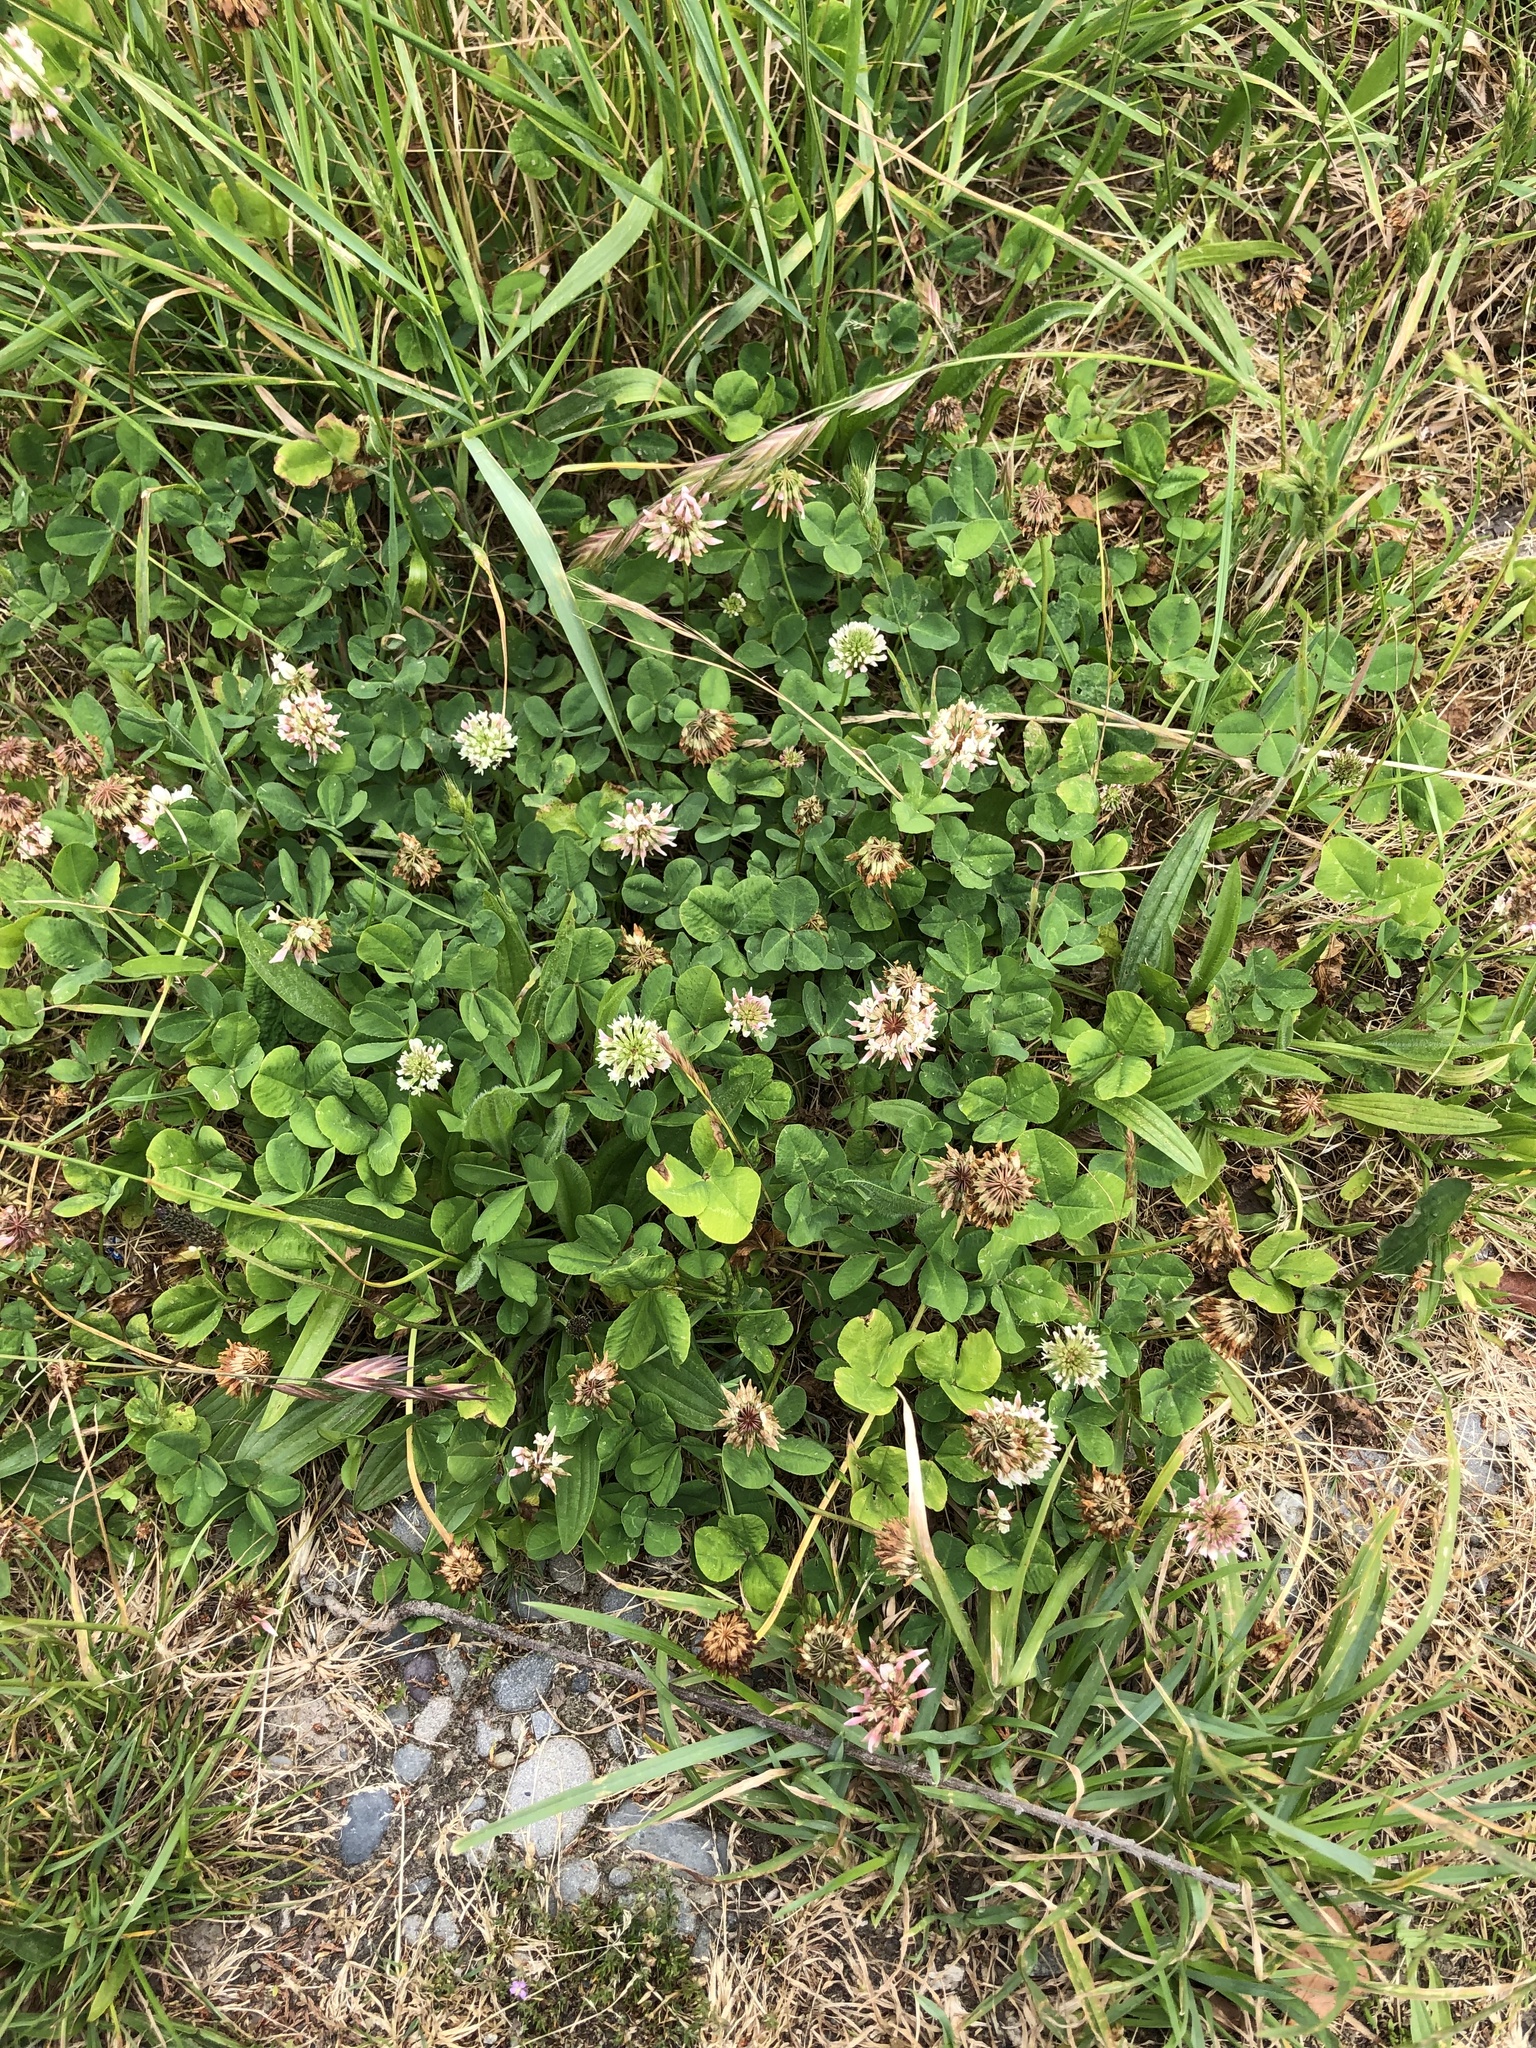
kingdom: Plantae
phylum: Tracheophyta
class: Magnoliopsida
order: Fabales
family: Fabaceae
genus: Trifolium
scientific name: Trifolium repens
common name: White clover
